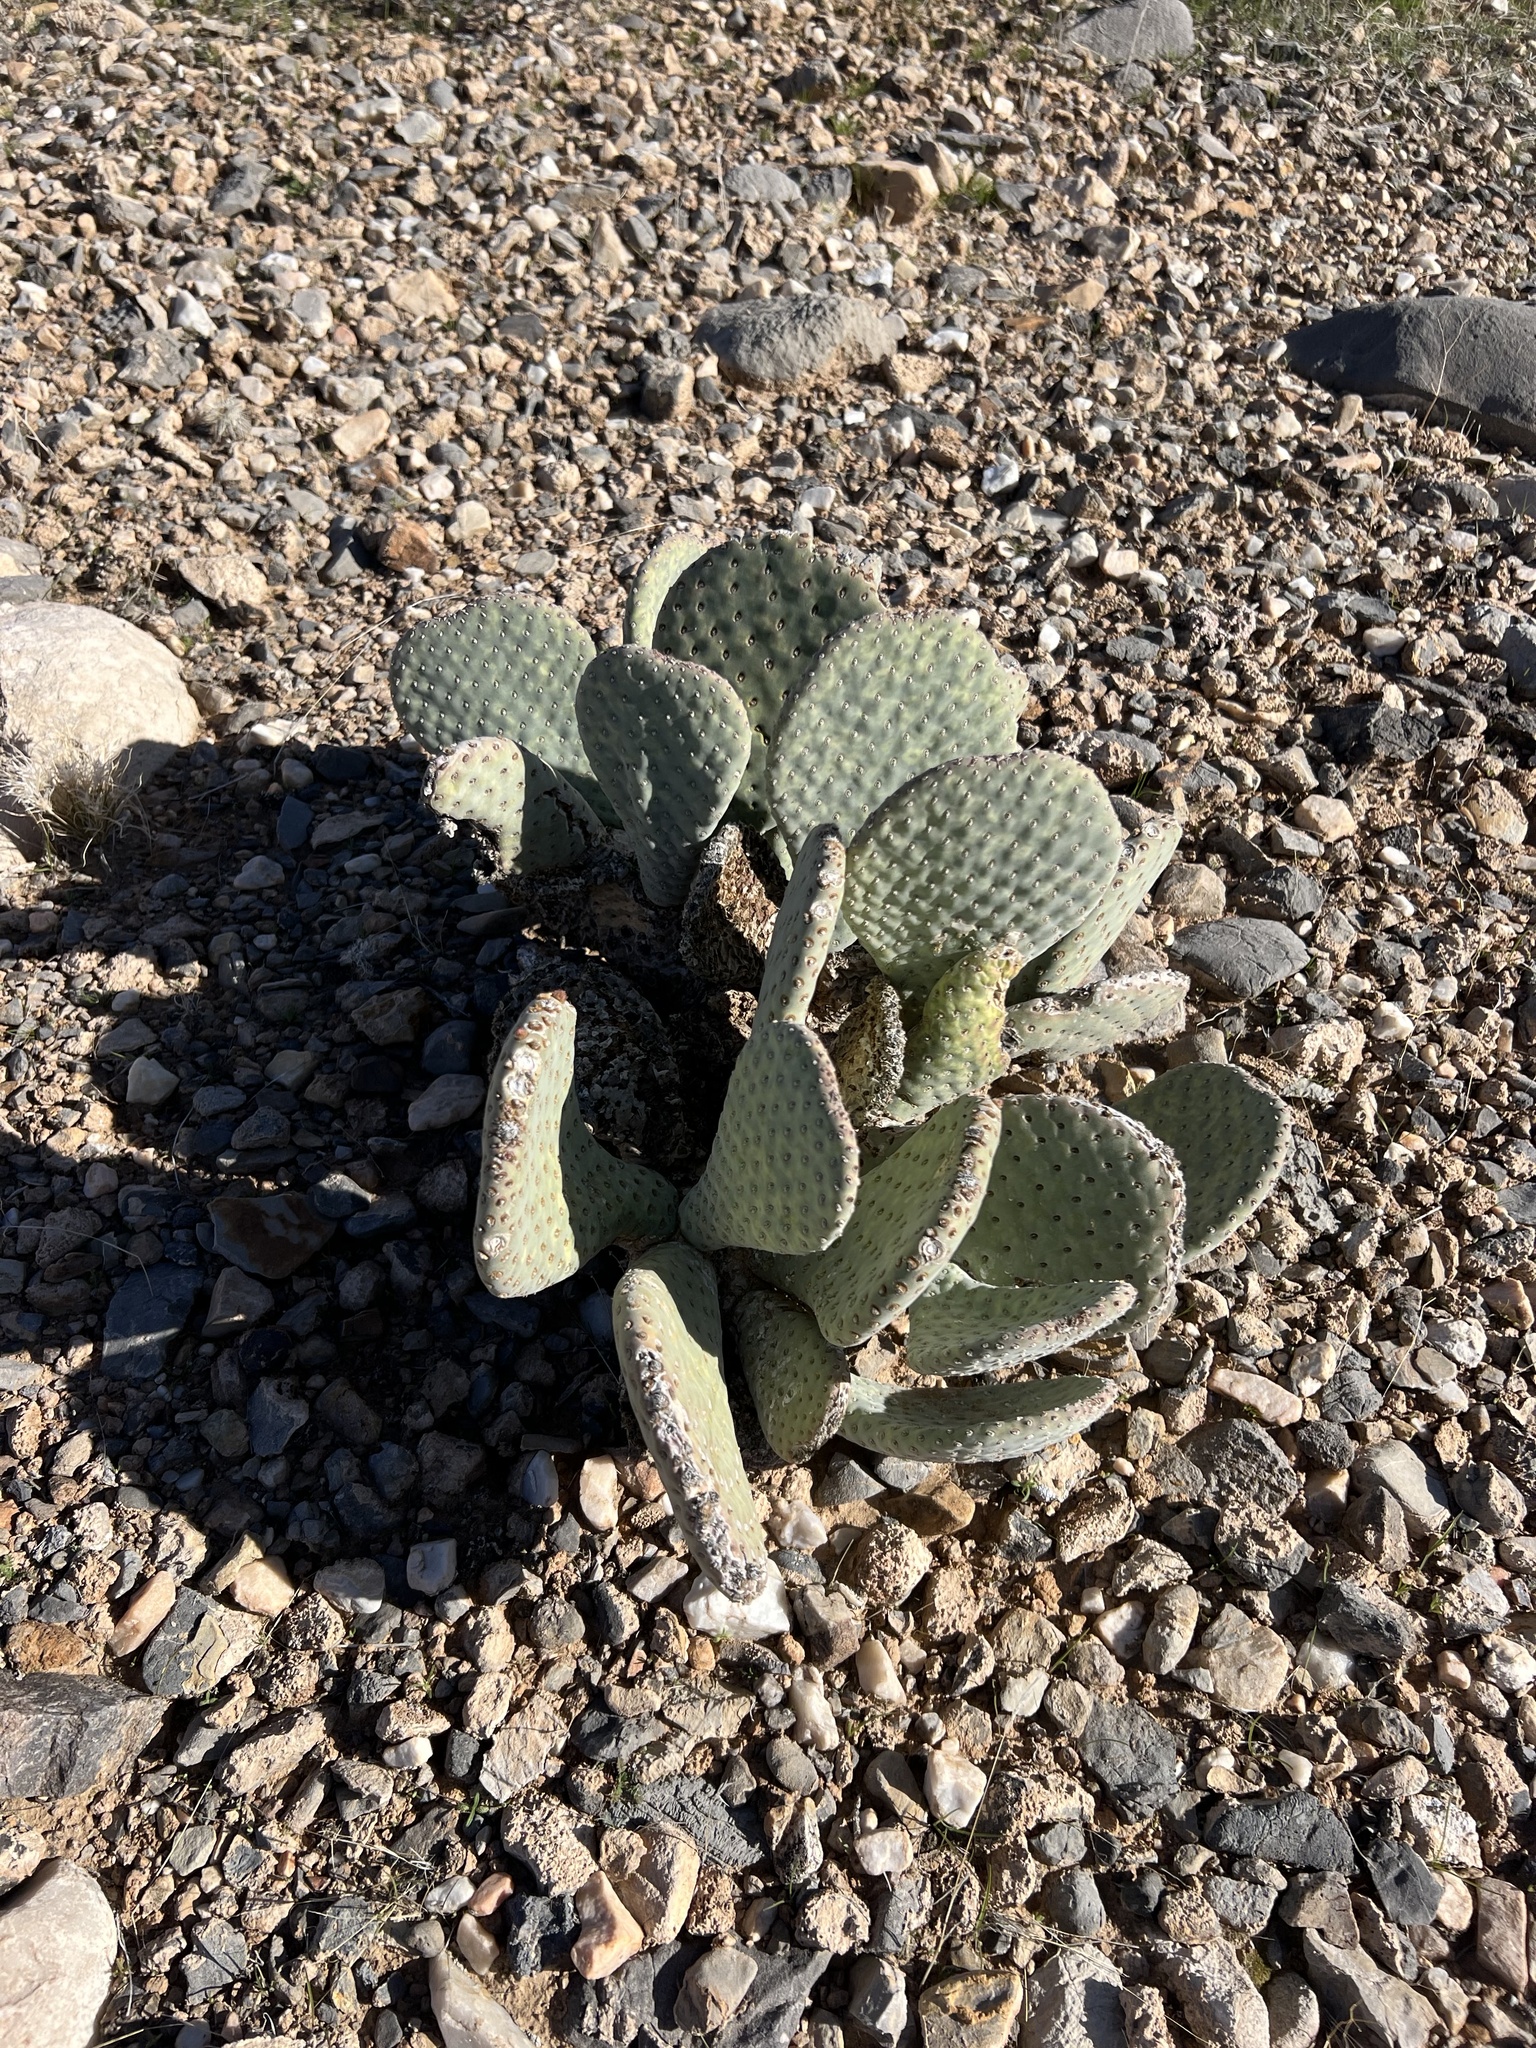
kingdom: Plantae
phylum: Tracheophyta
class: Magnoliopsida
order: Caryophyllales
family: Cactaceae
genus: Opuntia
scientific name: Opuntia basilaris
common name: Beavertail prickly-pear
